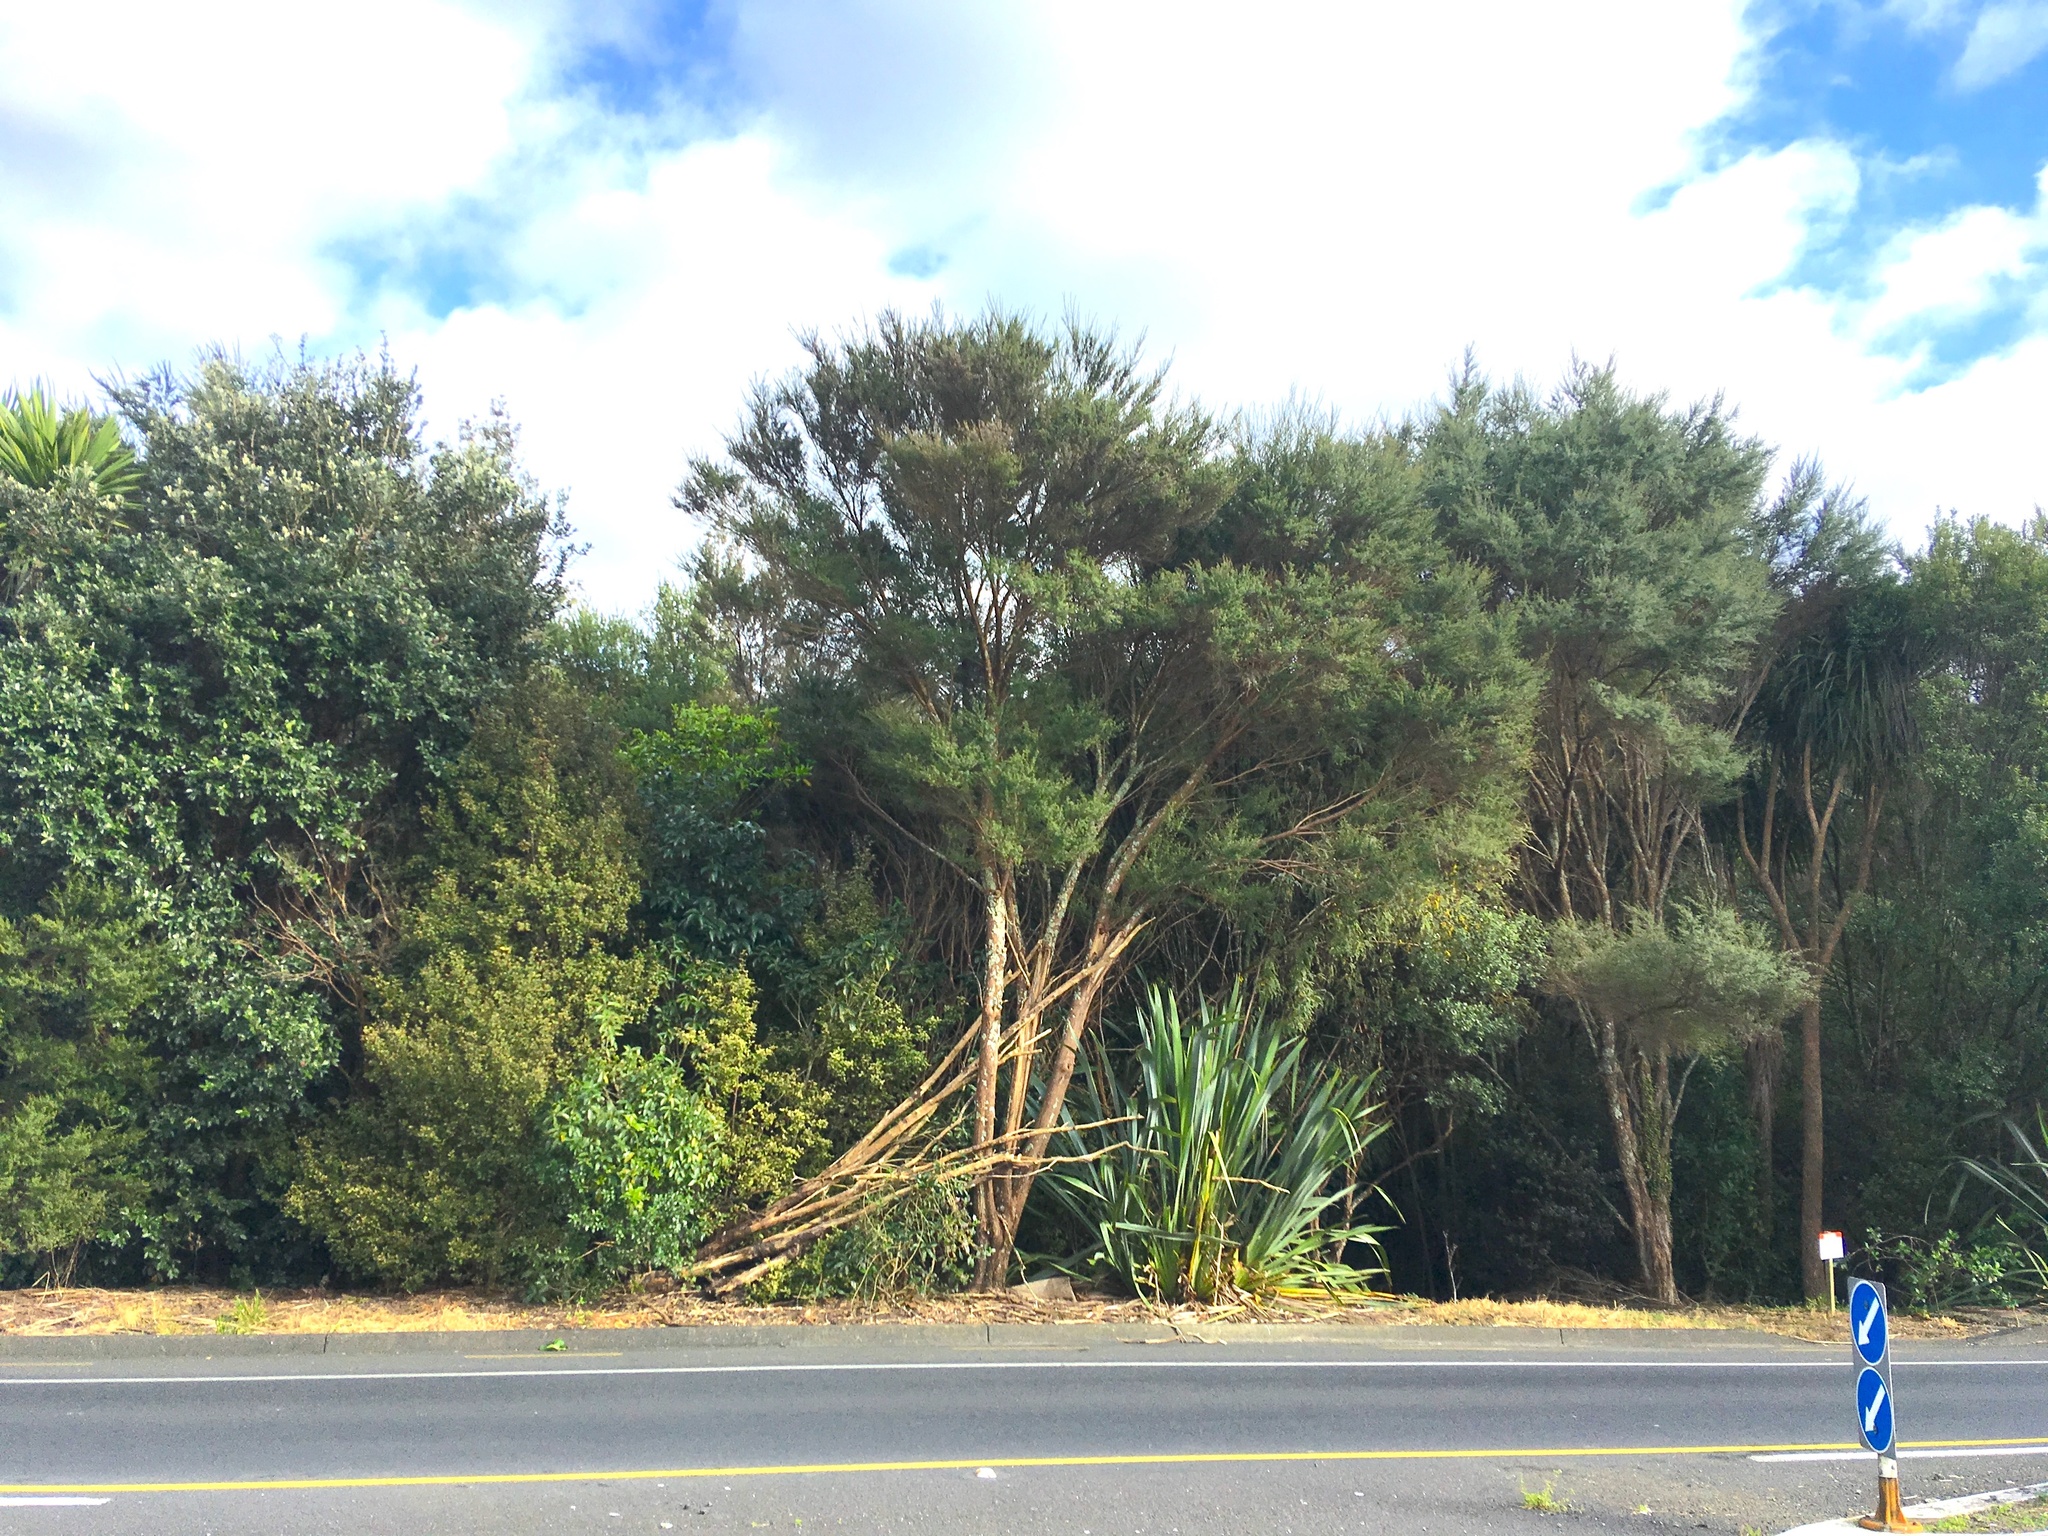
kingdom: Plantae
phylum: Tracheophyta
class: Liliopsida
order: Asparagales
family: Asphodelaceae
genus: Phormium
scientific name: Phormium tenax
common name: New zealand flax
